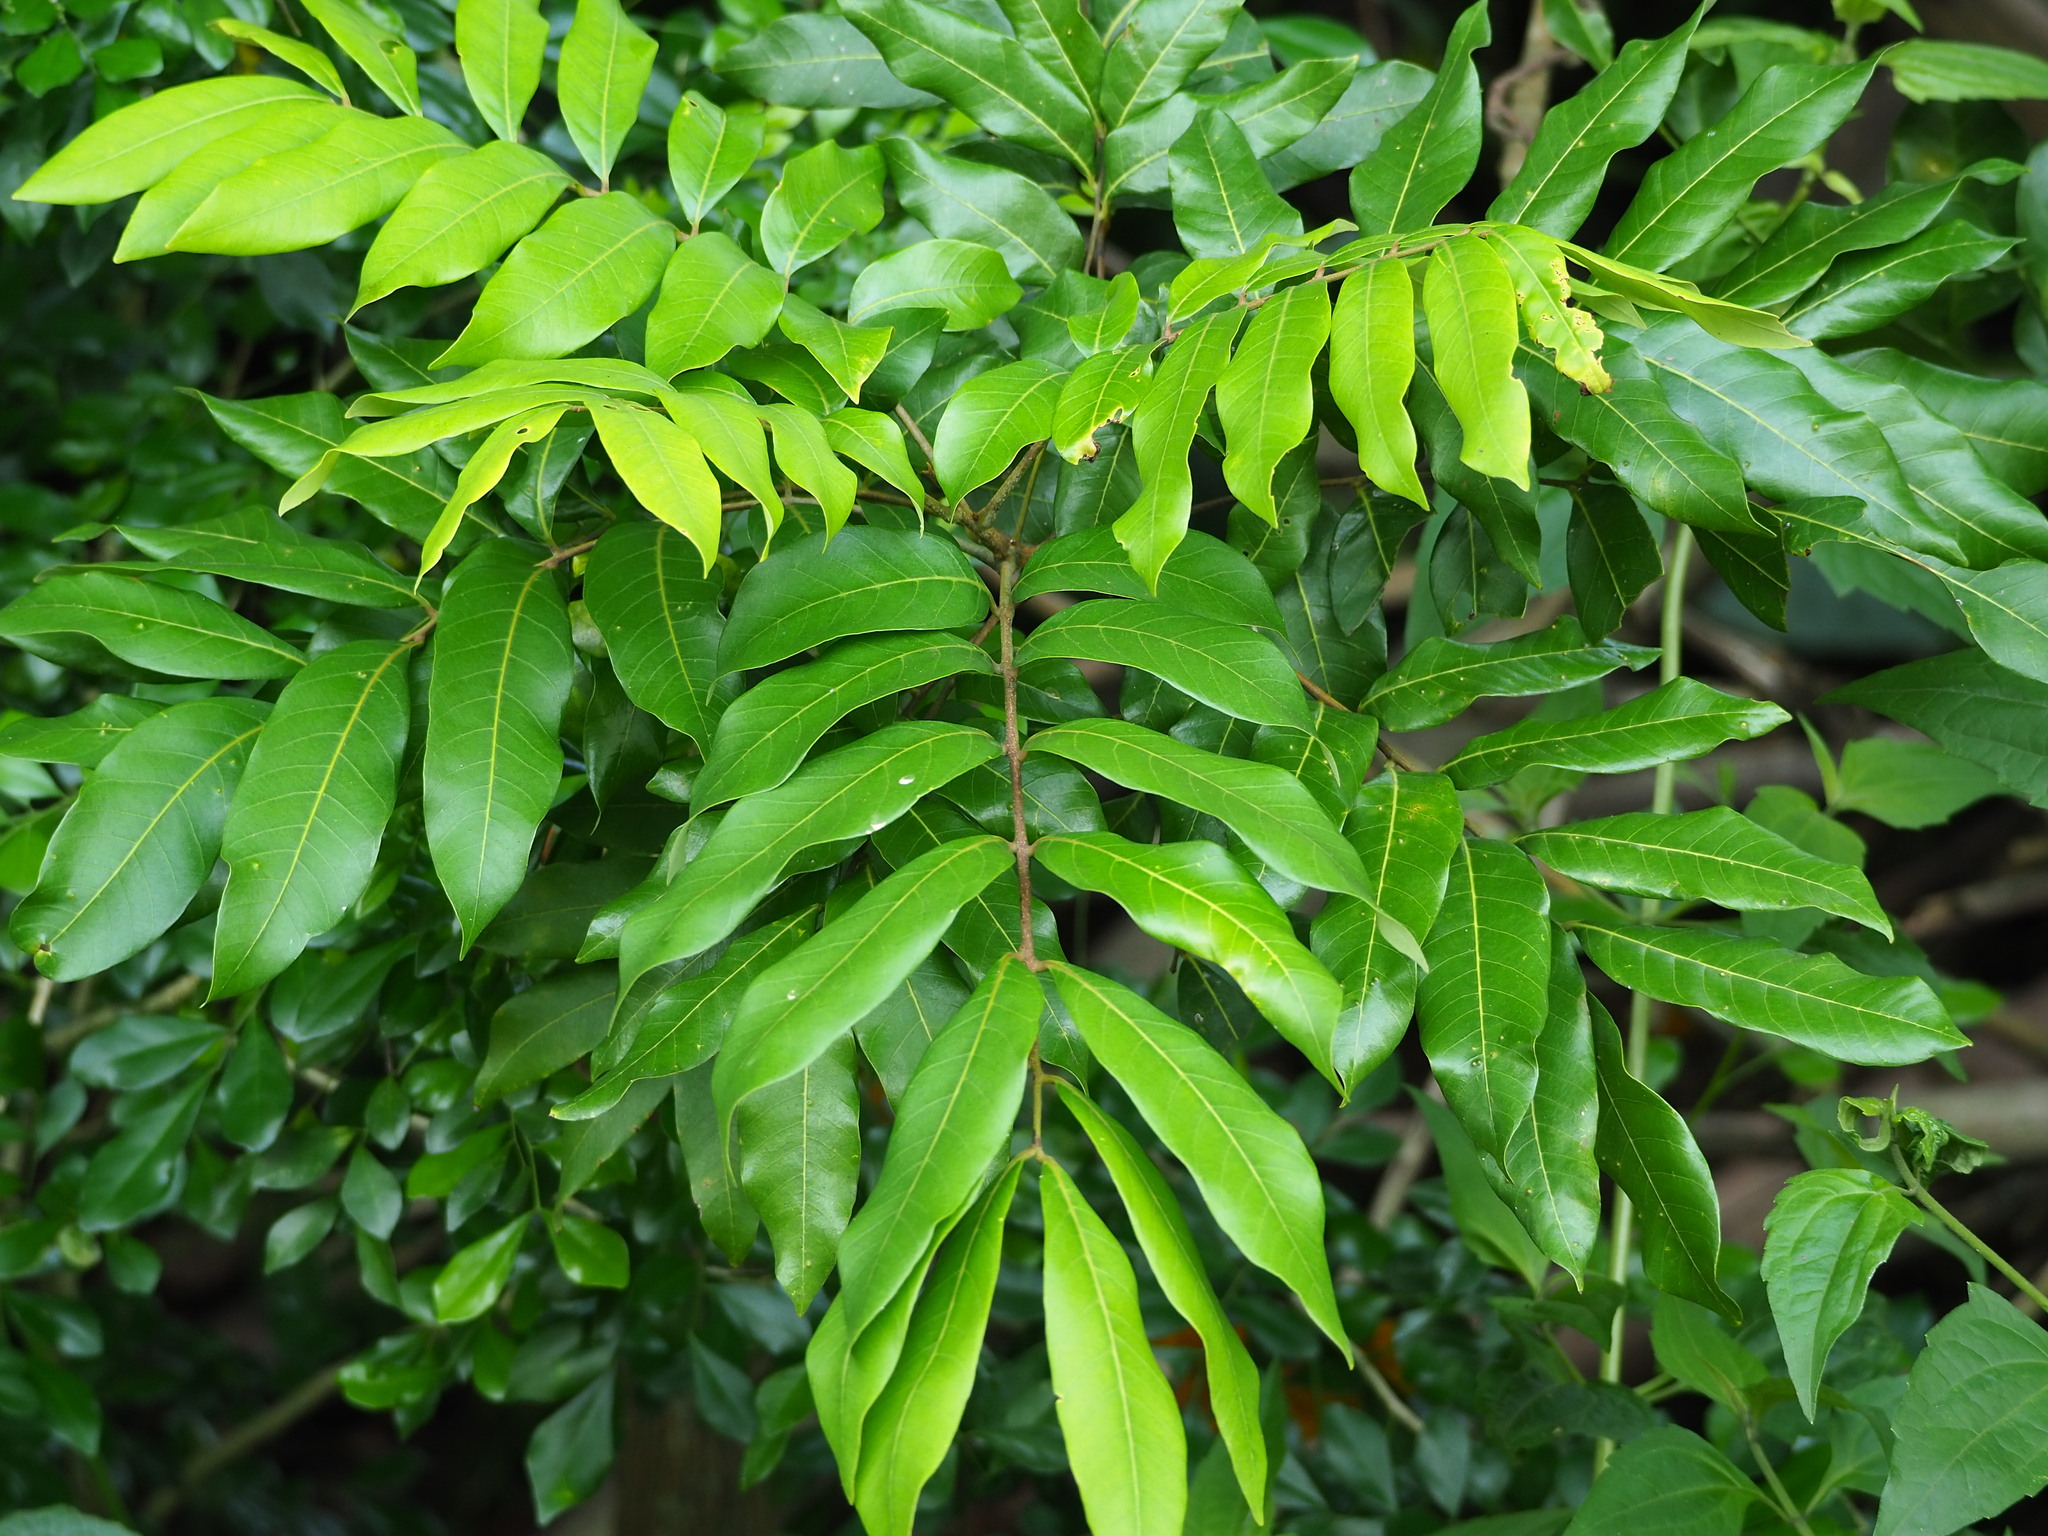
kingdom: Plantae
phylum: Tracheophyta
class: Magnoliopsida
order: Sapindales
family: Sapindaceae
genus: Dimocarpus
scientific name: Dimocarpus longan
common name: Longan
